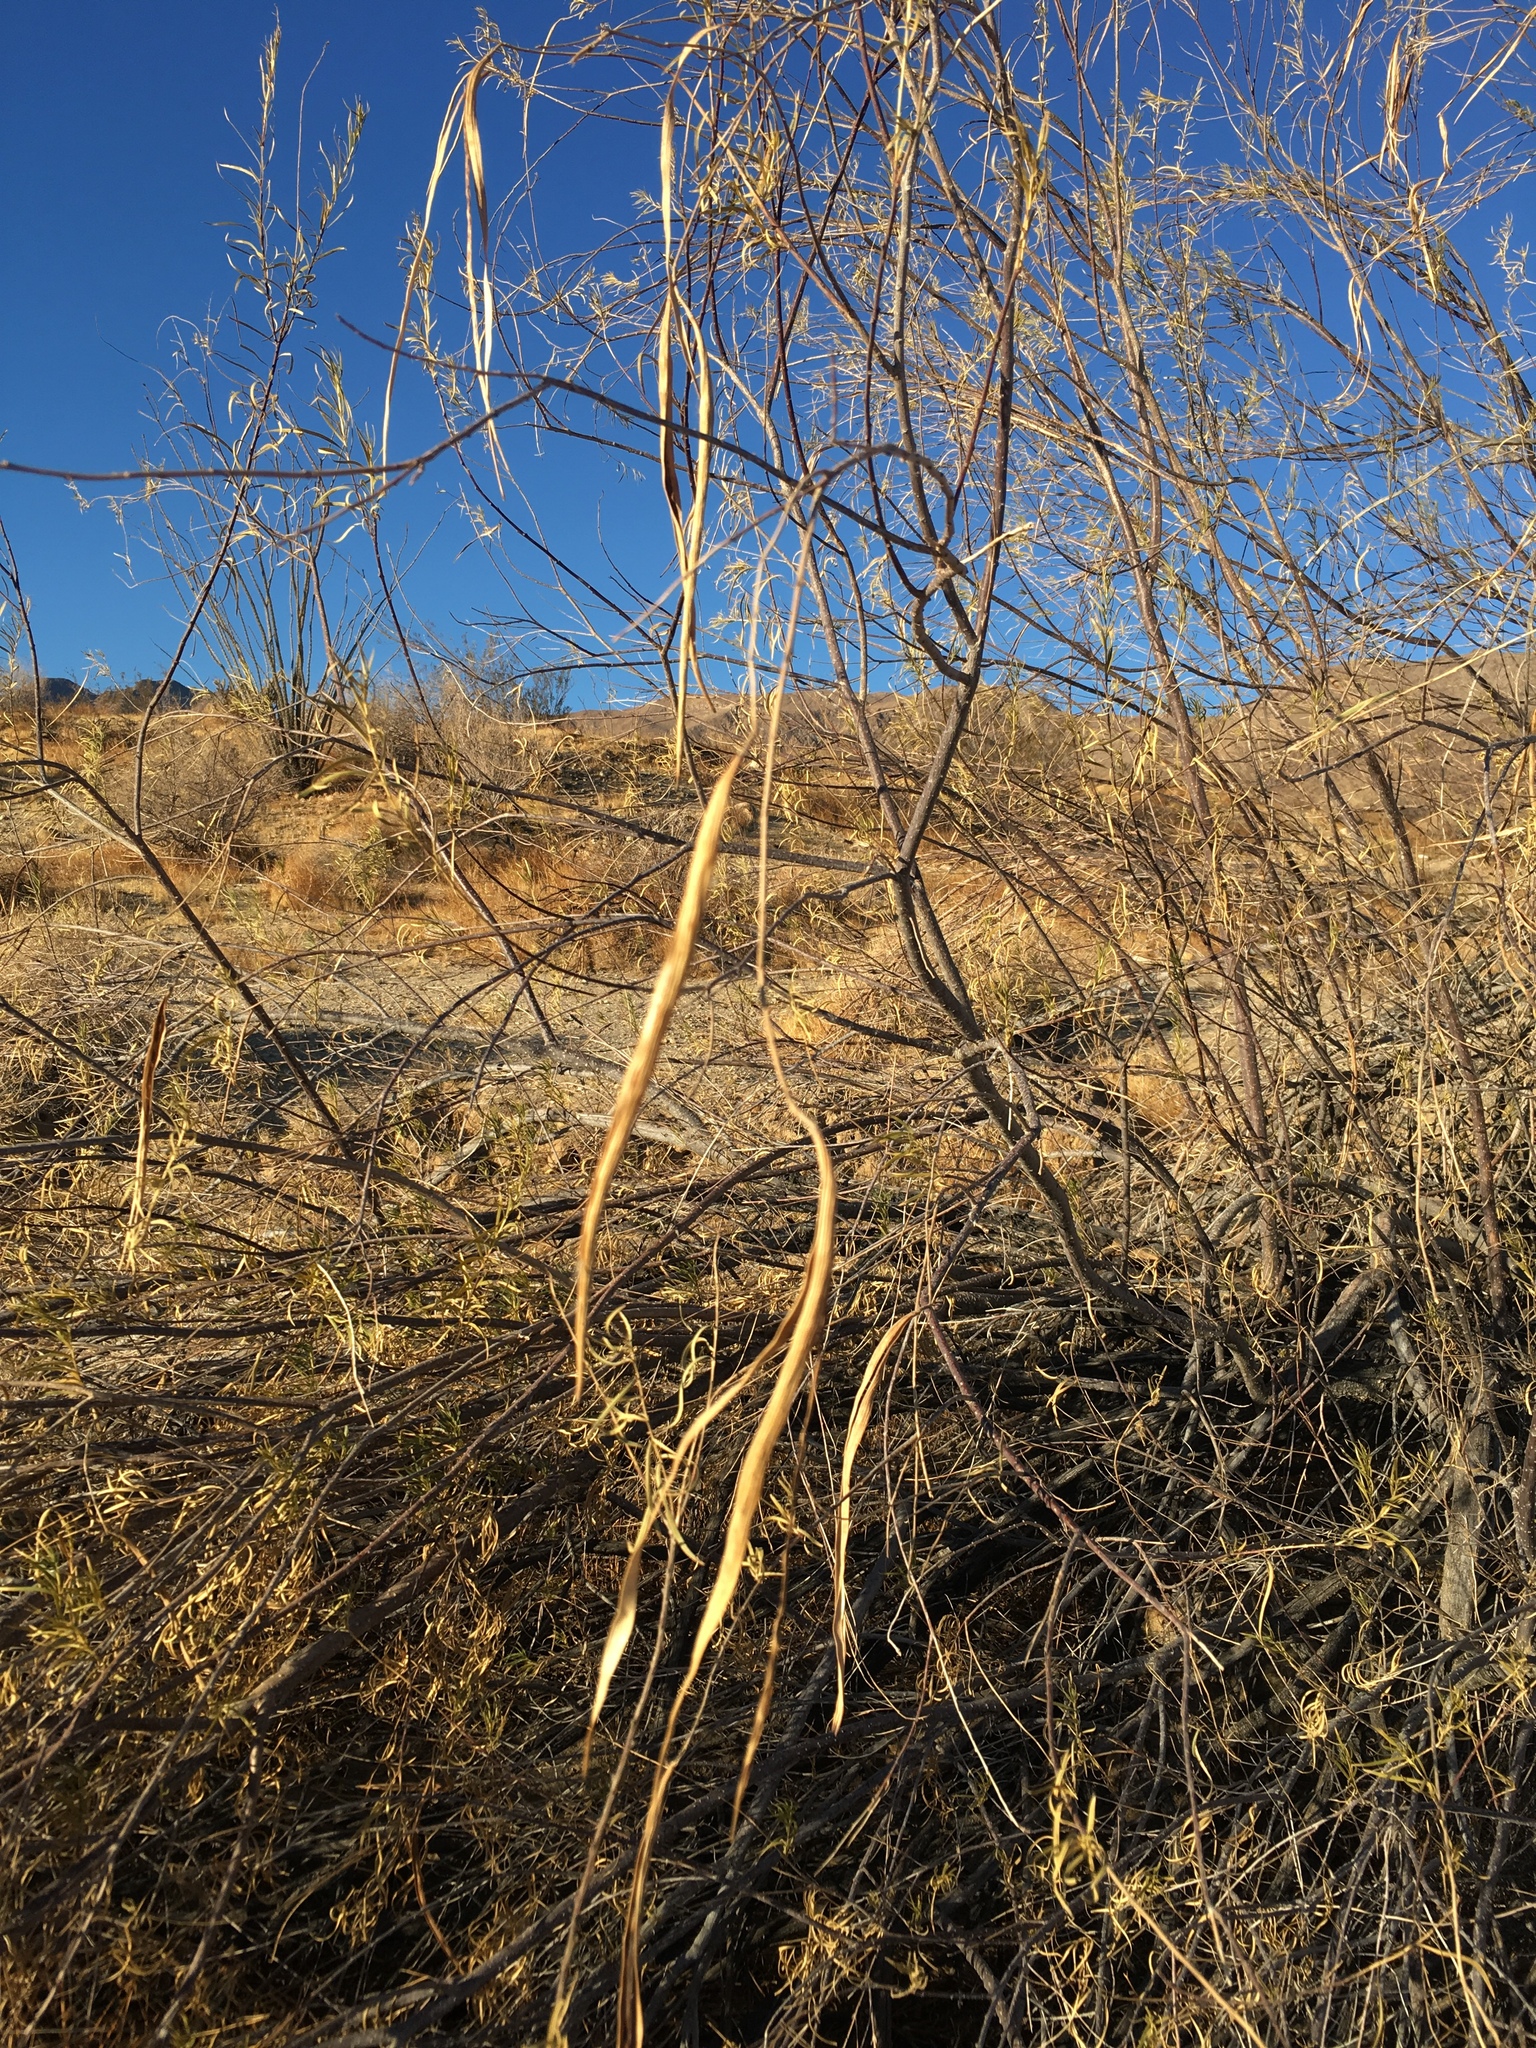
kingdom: Plantae
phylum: Tracheophyta
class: Magnoliopsida
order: Lamiales
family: Bignoniaceae
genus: Chilopsis
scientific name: Chilopsis linearis
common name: Desert-willow
